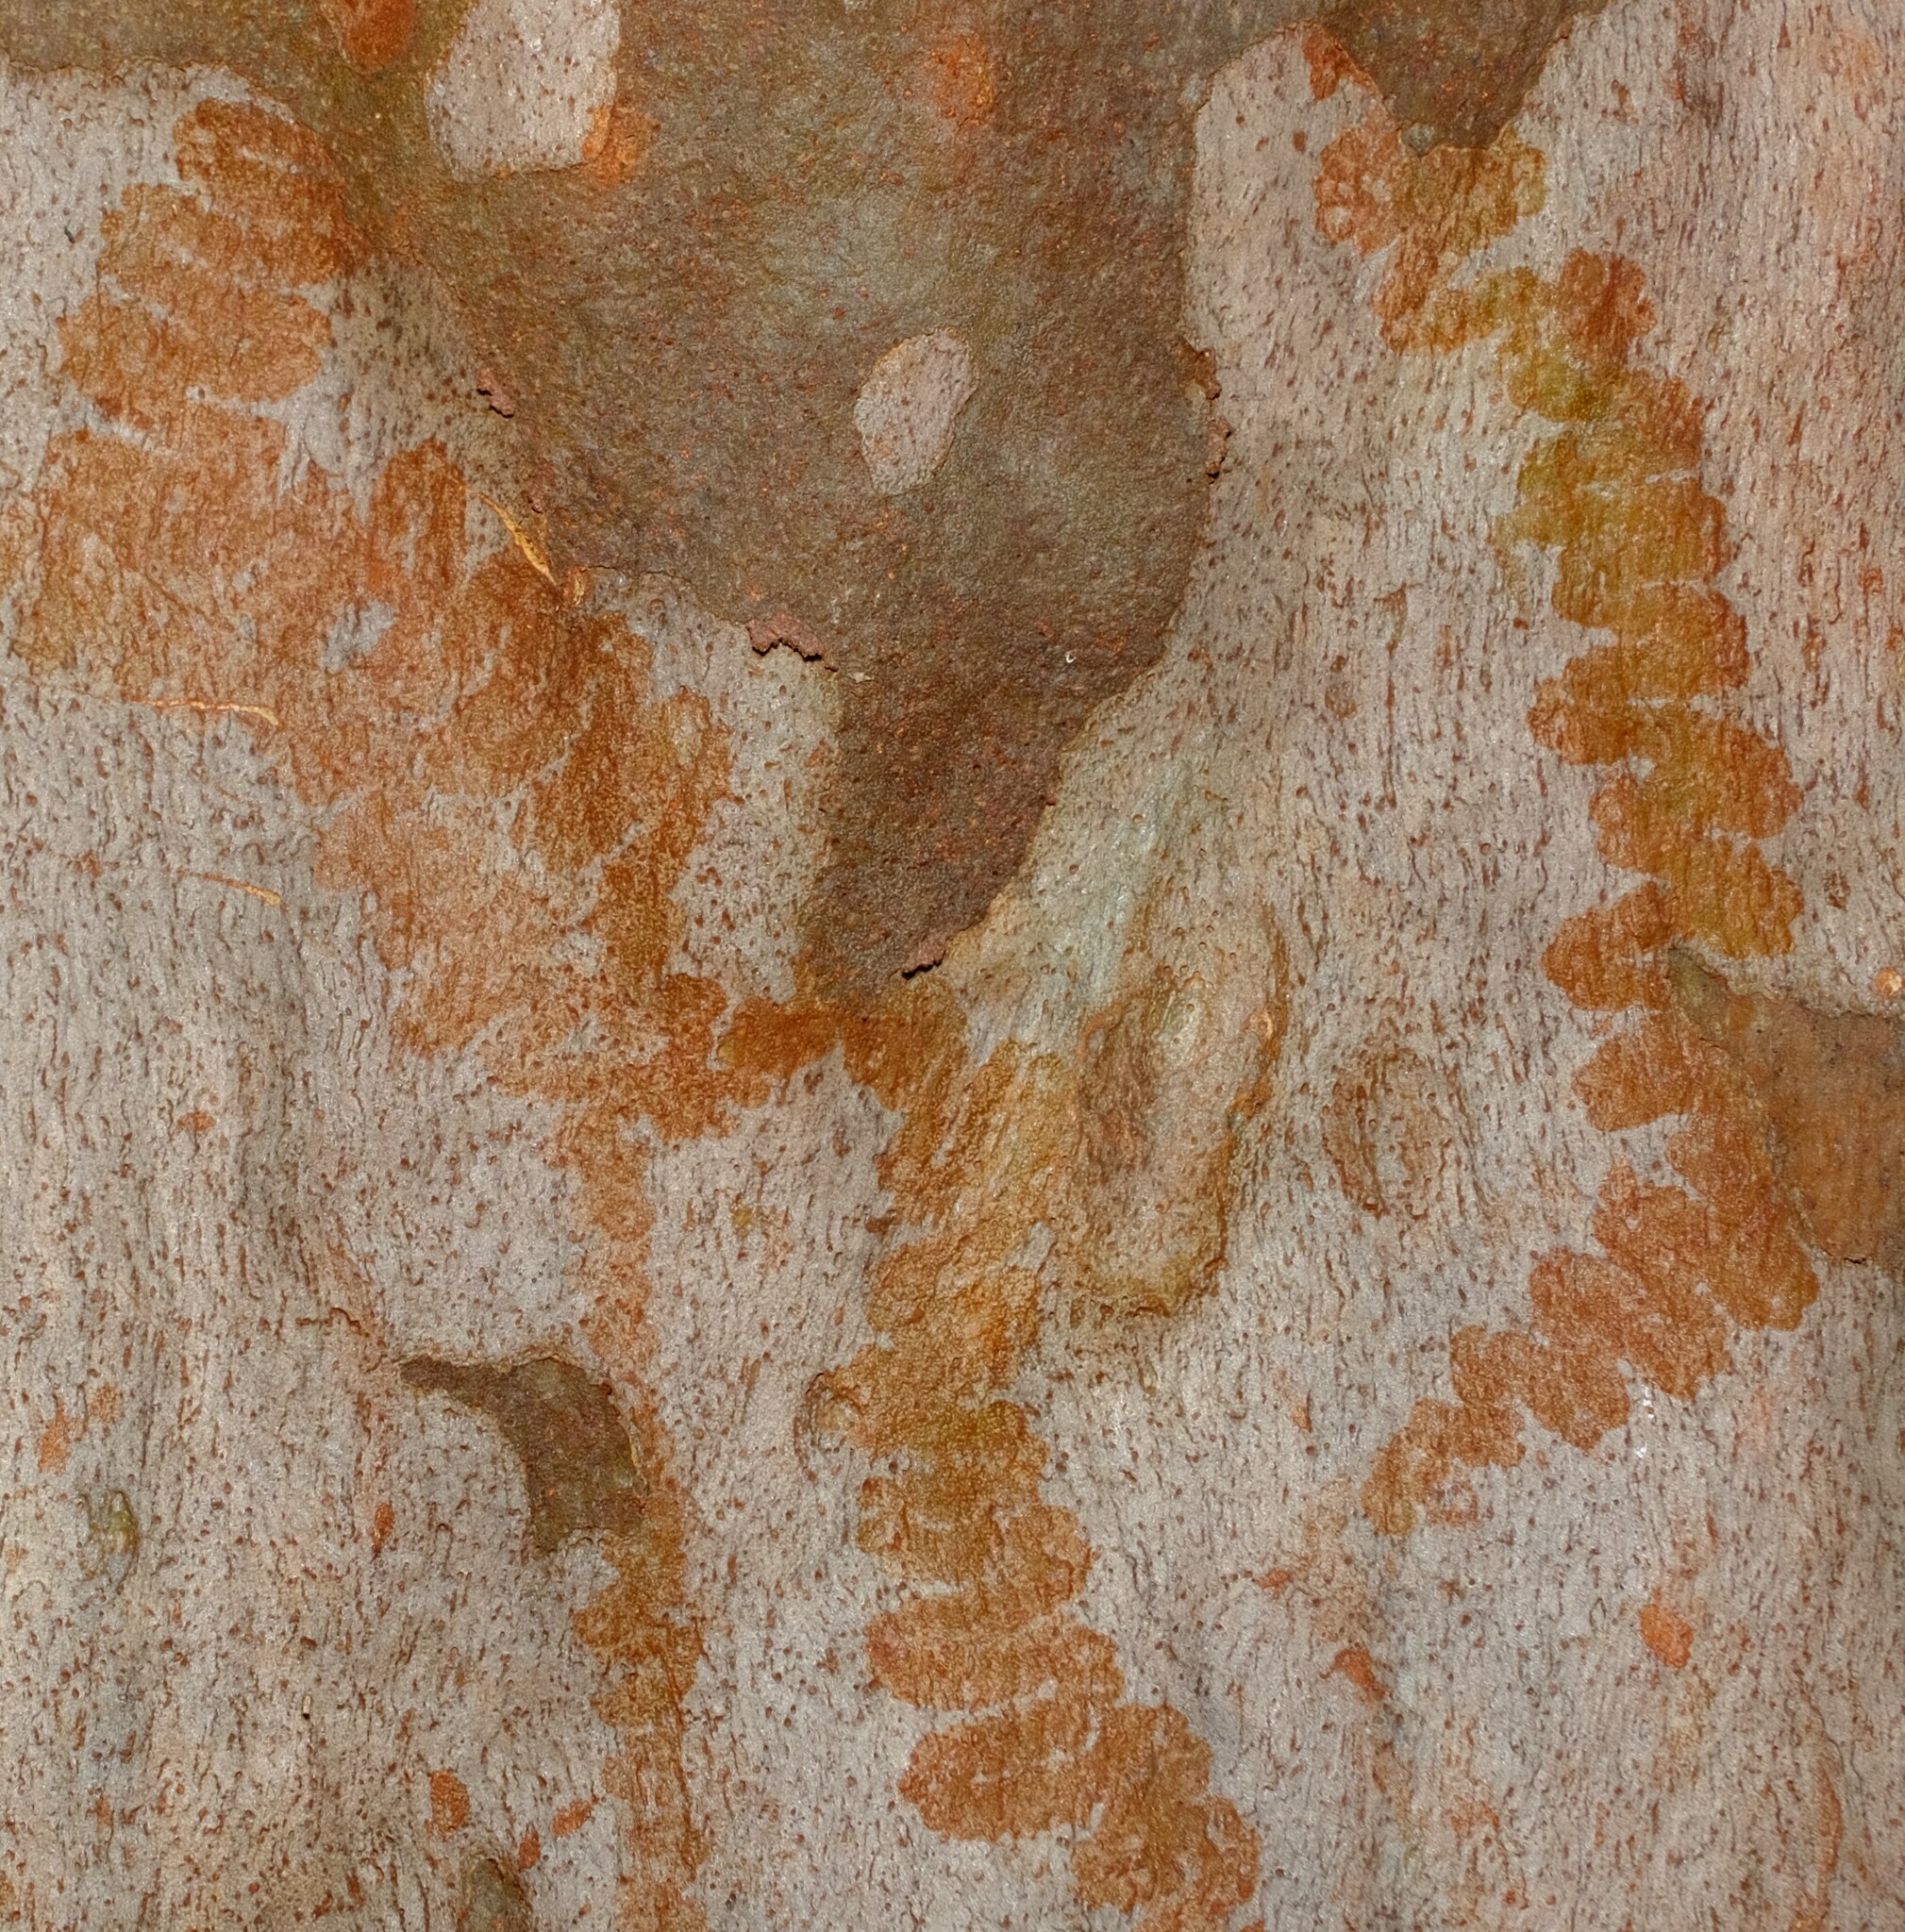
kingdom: Animalia
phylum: Mollusca
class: Gastropoda
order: Stylommatophora
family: Athoracophoridae
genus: Triboniophorus
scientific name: Triboniophorus graeffei
